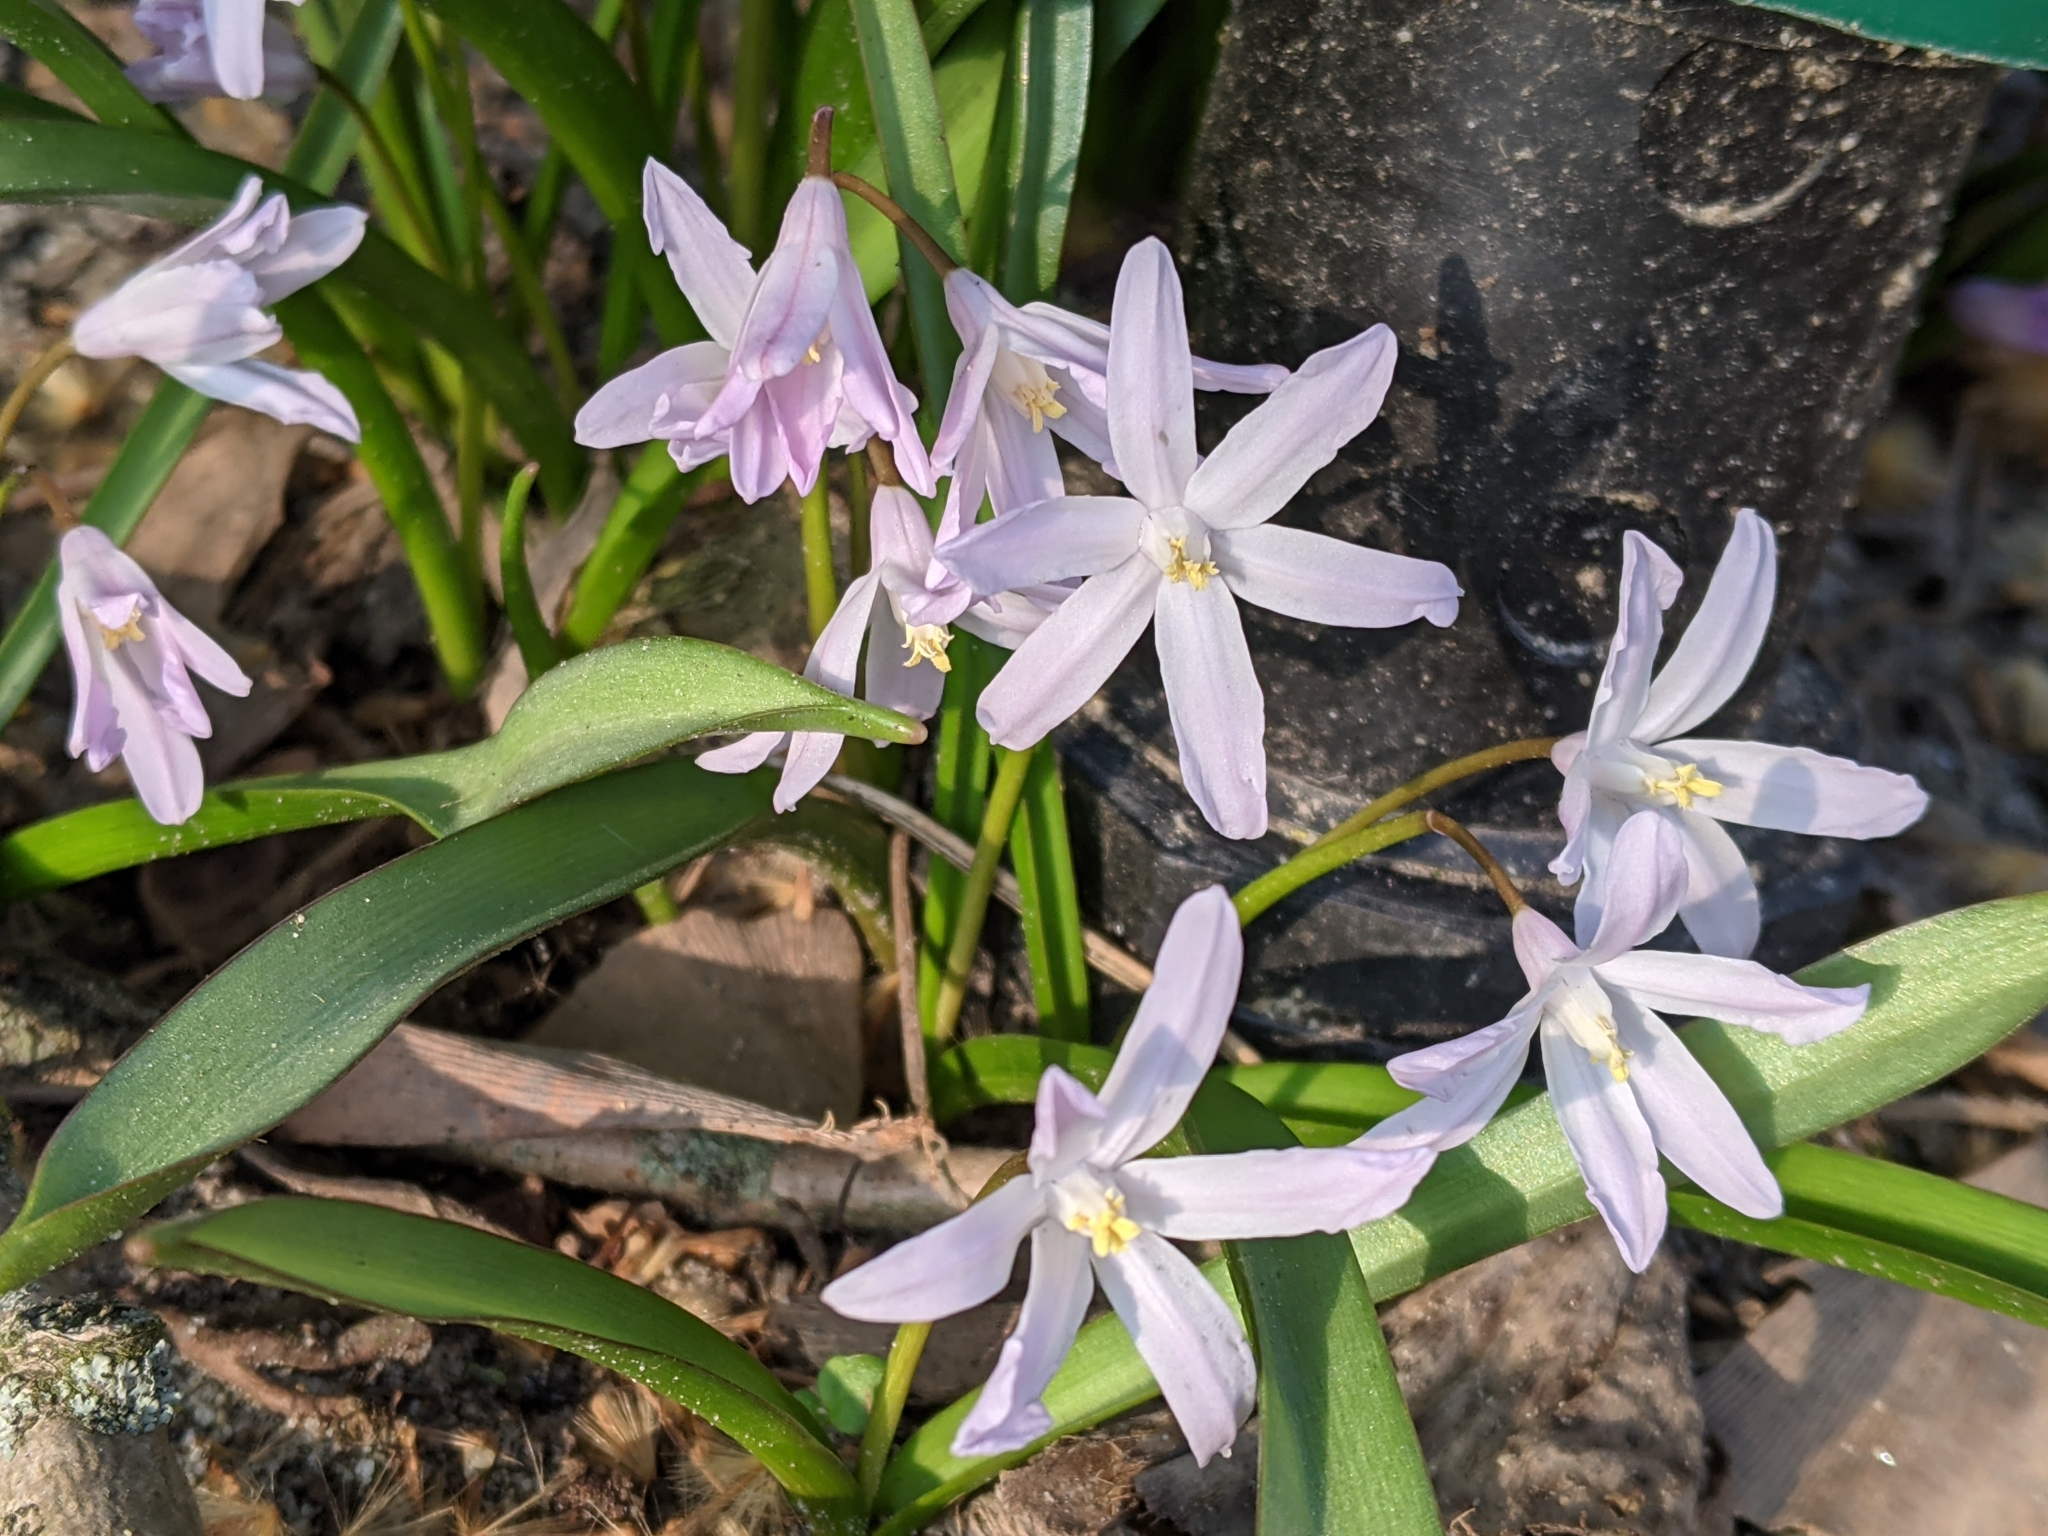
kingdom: Plantae
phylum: Tracheophyta
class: Liliopsida
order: Asparagales
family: Asparagaceae
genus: Scilla
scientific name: Scilla forbesii
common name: Glory-of-the-snow
